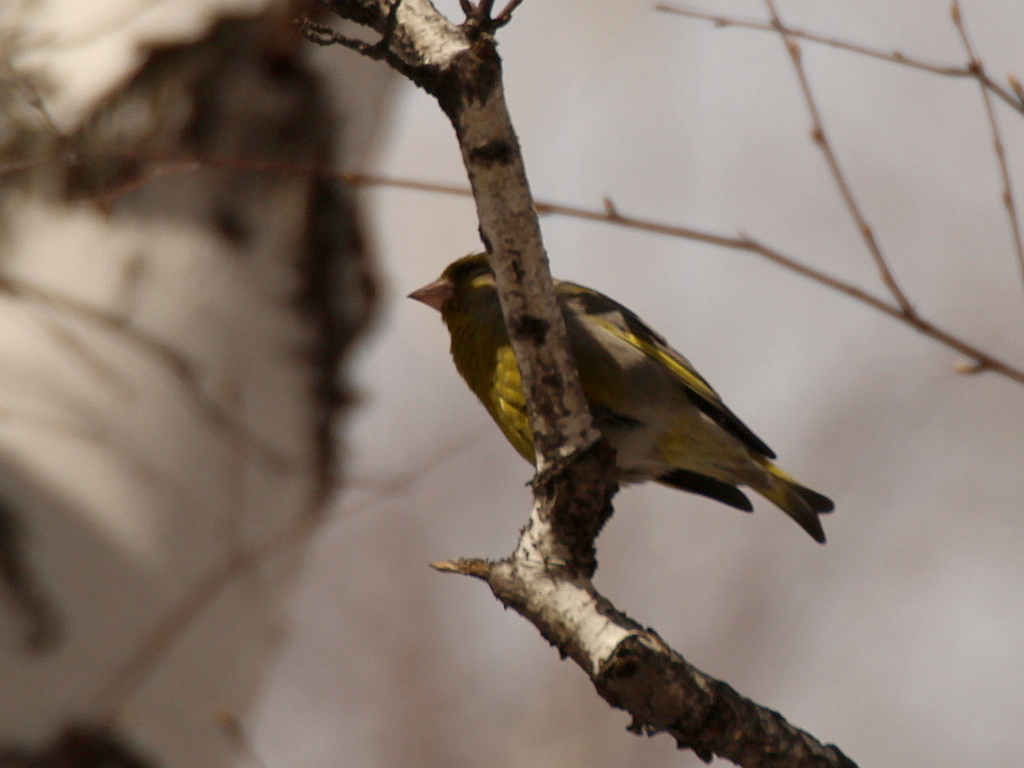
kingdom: Plantae
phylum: Tracheophyta
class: Liliopsida
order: Poales
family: Poaceae
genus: Chloris
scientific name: Chloris chloris
